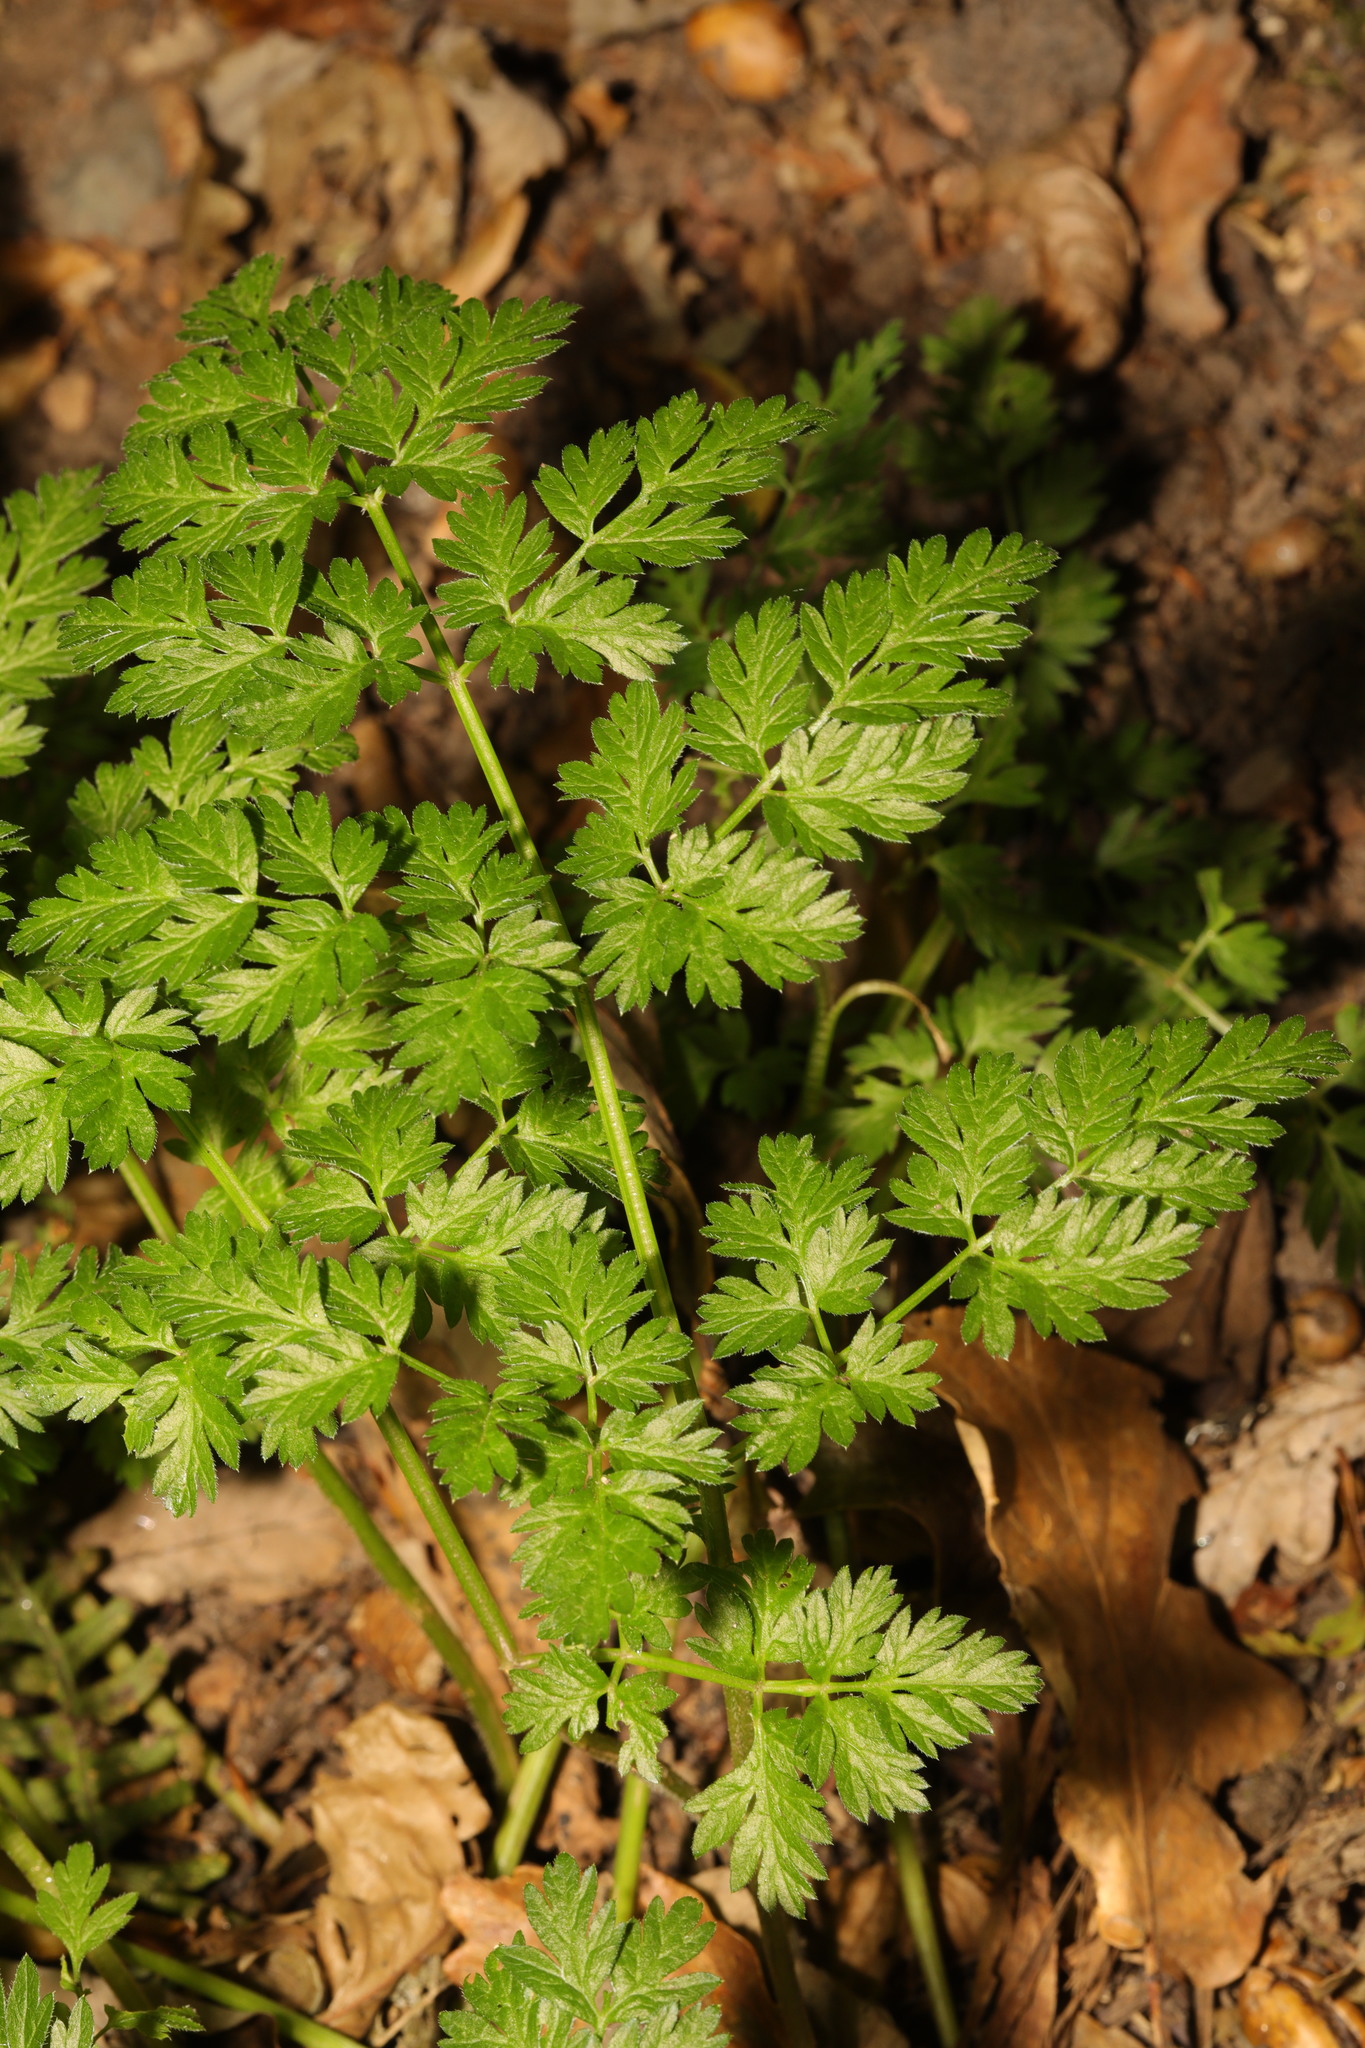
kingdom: Plantae
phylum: Tracheophyta
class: Magnoliopsida
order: Apiales
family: Apiaceae
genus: Anthriscus
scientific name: Anthriscus sylvestris
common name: Cow parsley
